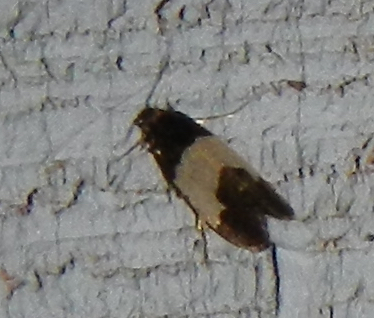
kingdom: Animalia
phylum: Arthropoda
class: Insecta
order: Lepidoptera
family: Psychidae
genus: Kearfottia
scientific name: Kearfottia albifasciella
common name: White-patched kearfottia
